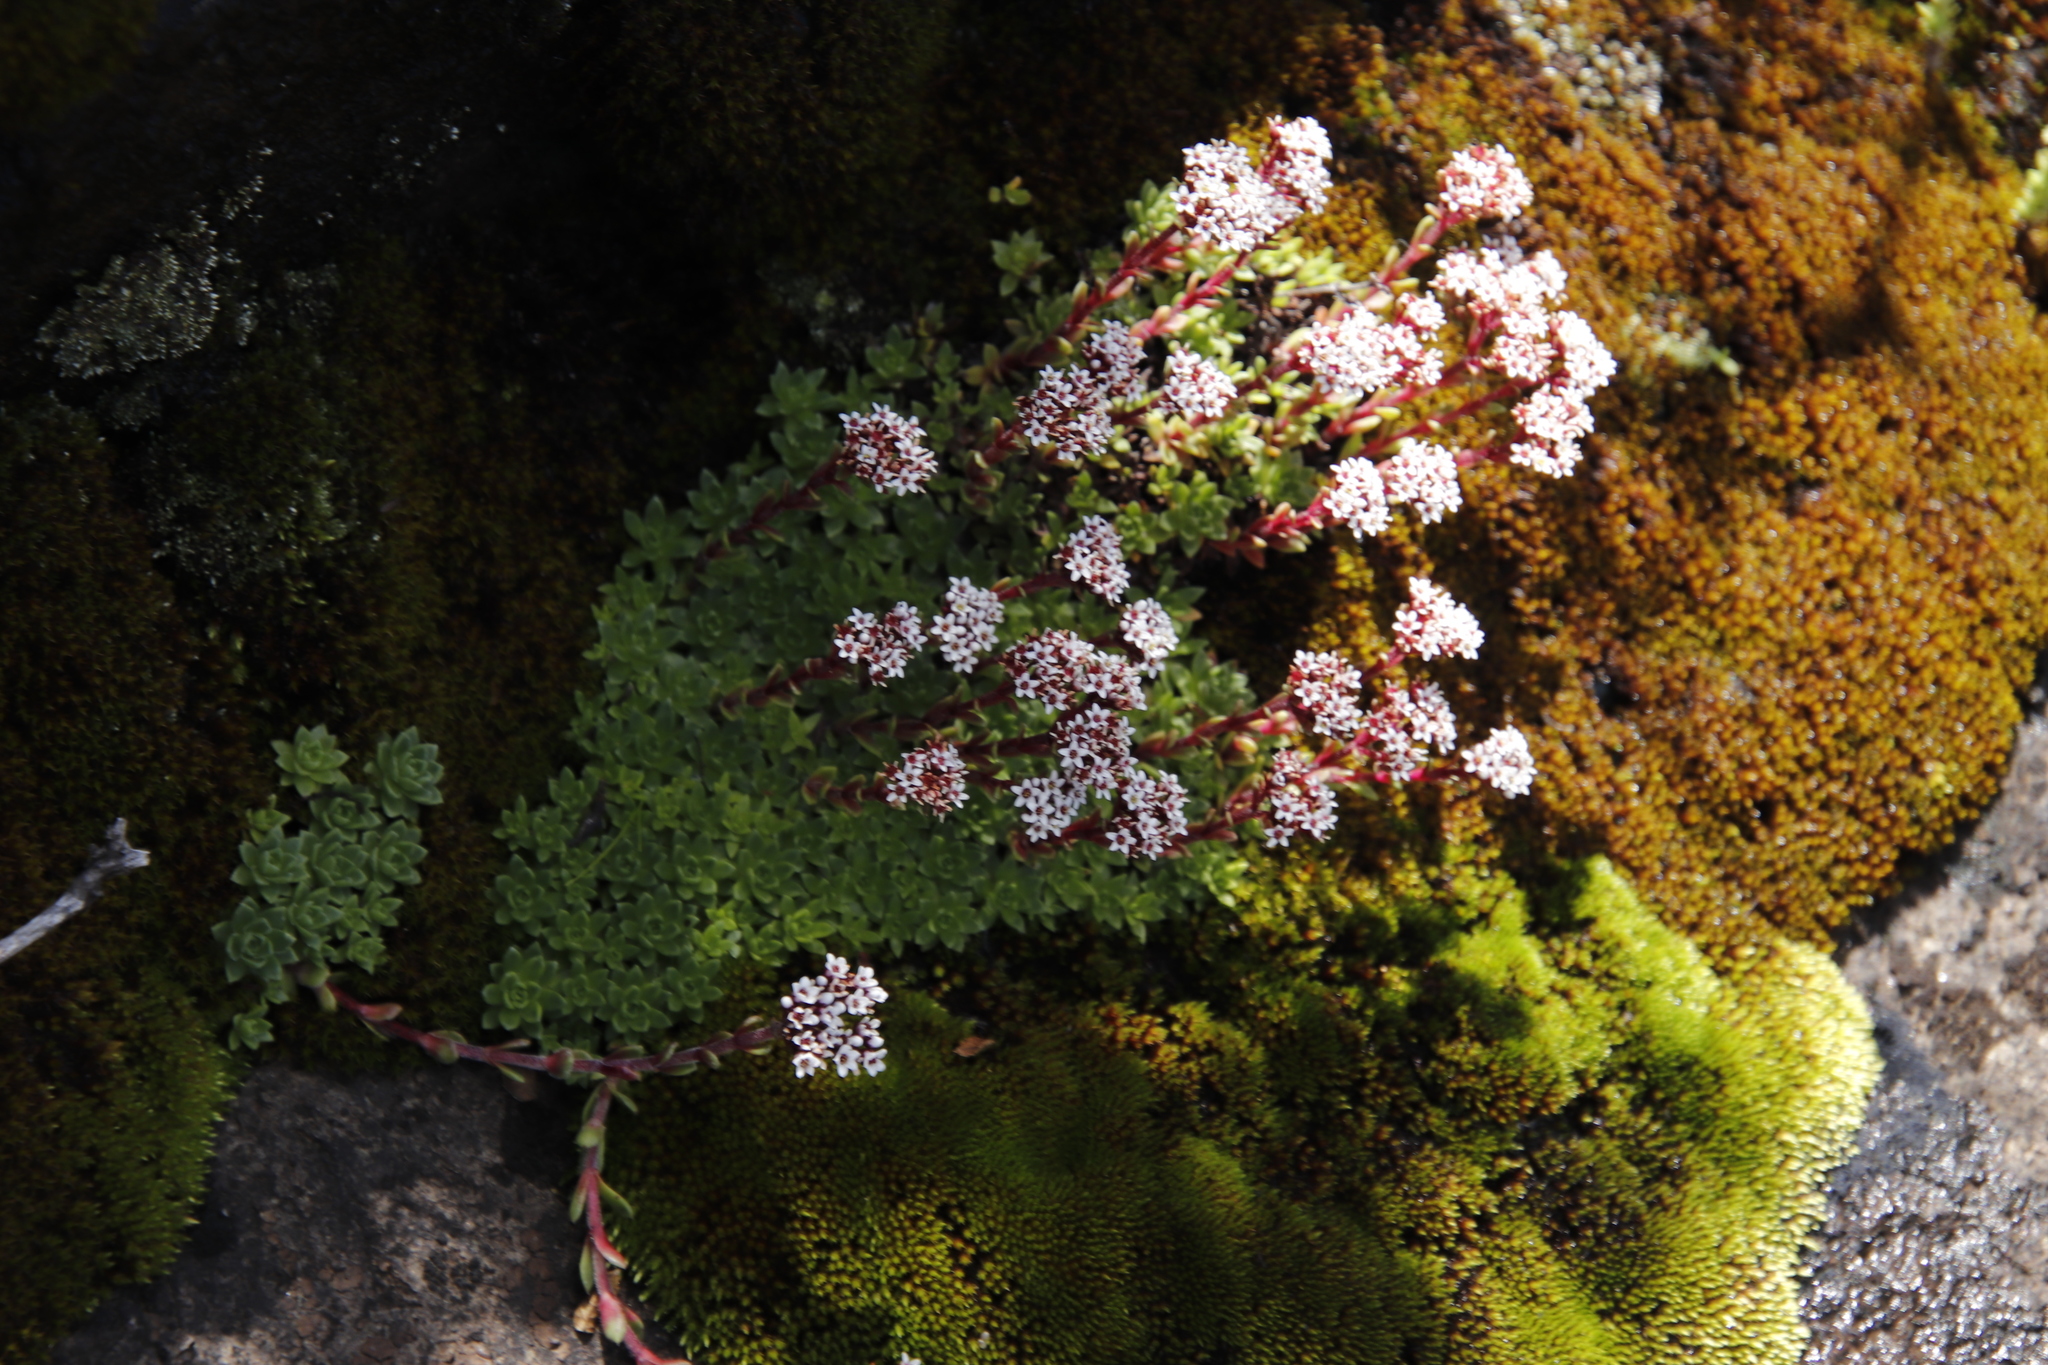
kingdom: Plantae
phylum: Tracheophyta
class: Magnoliopsida
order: Saxifragales
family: Crassulaceae
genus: Crassula
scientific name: Crassula setulosa
